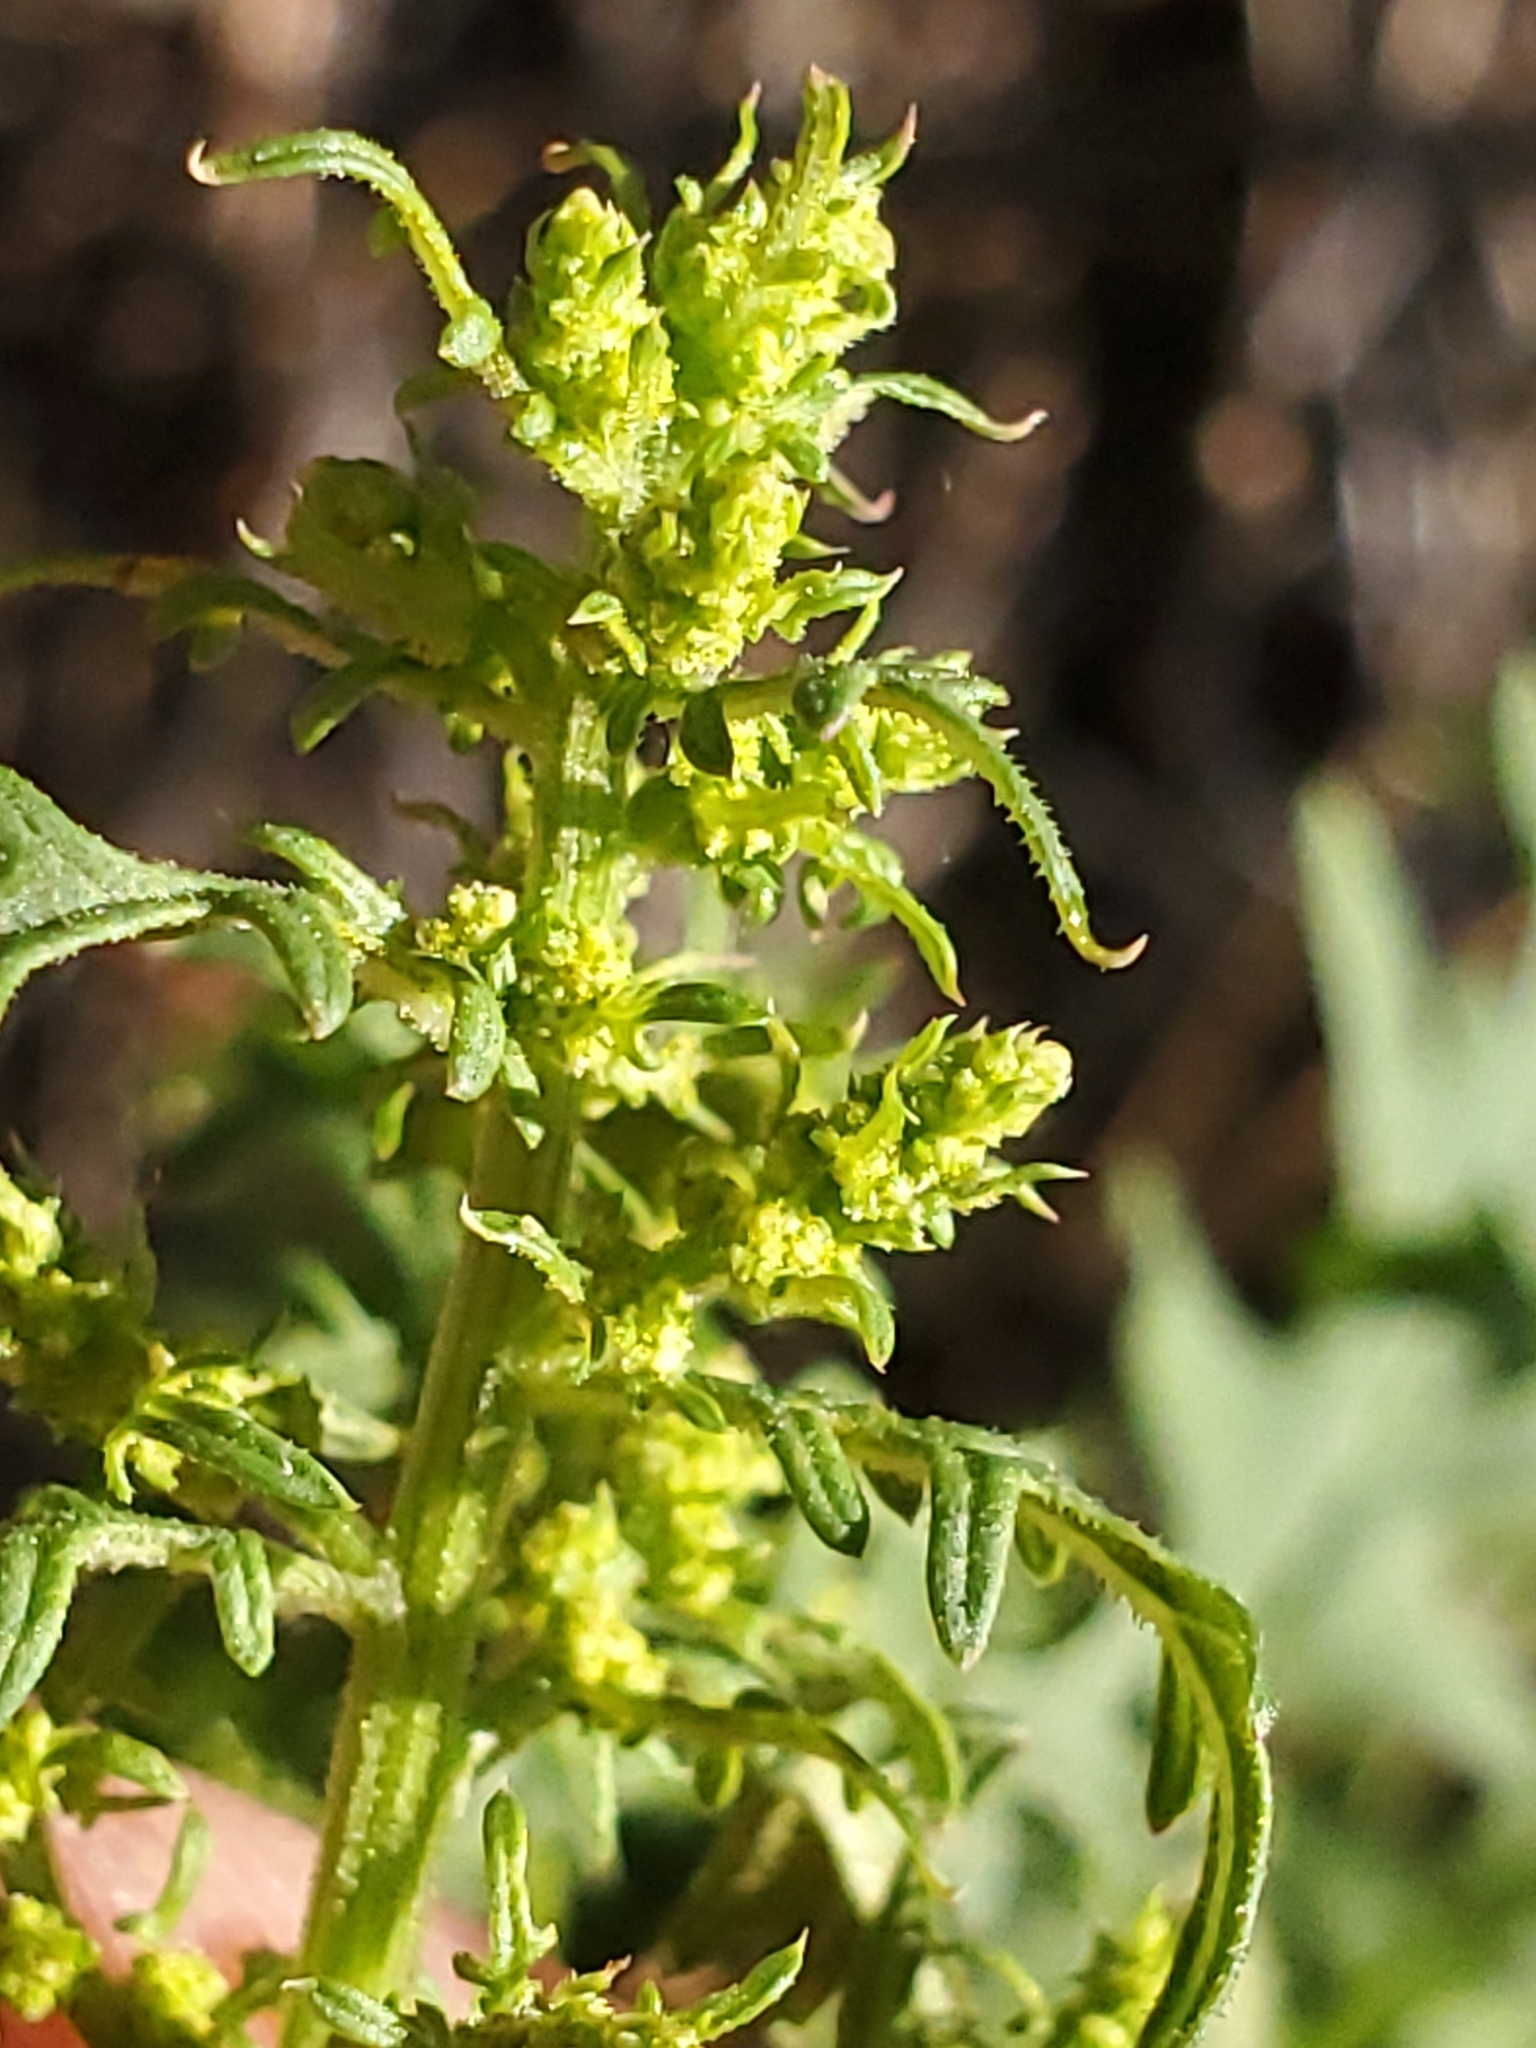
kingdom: Plantae
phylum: Tracheophyta
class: Magnoliopsida
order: Caryophyllales
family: Amaranthaceae
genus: Dysphania
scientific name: Dysphania incisa
